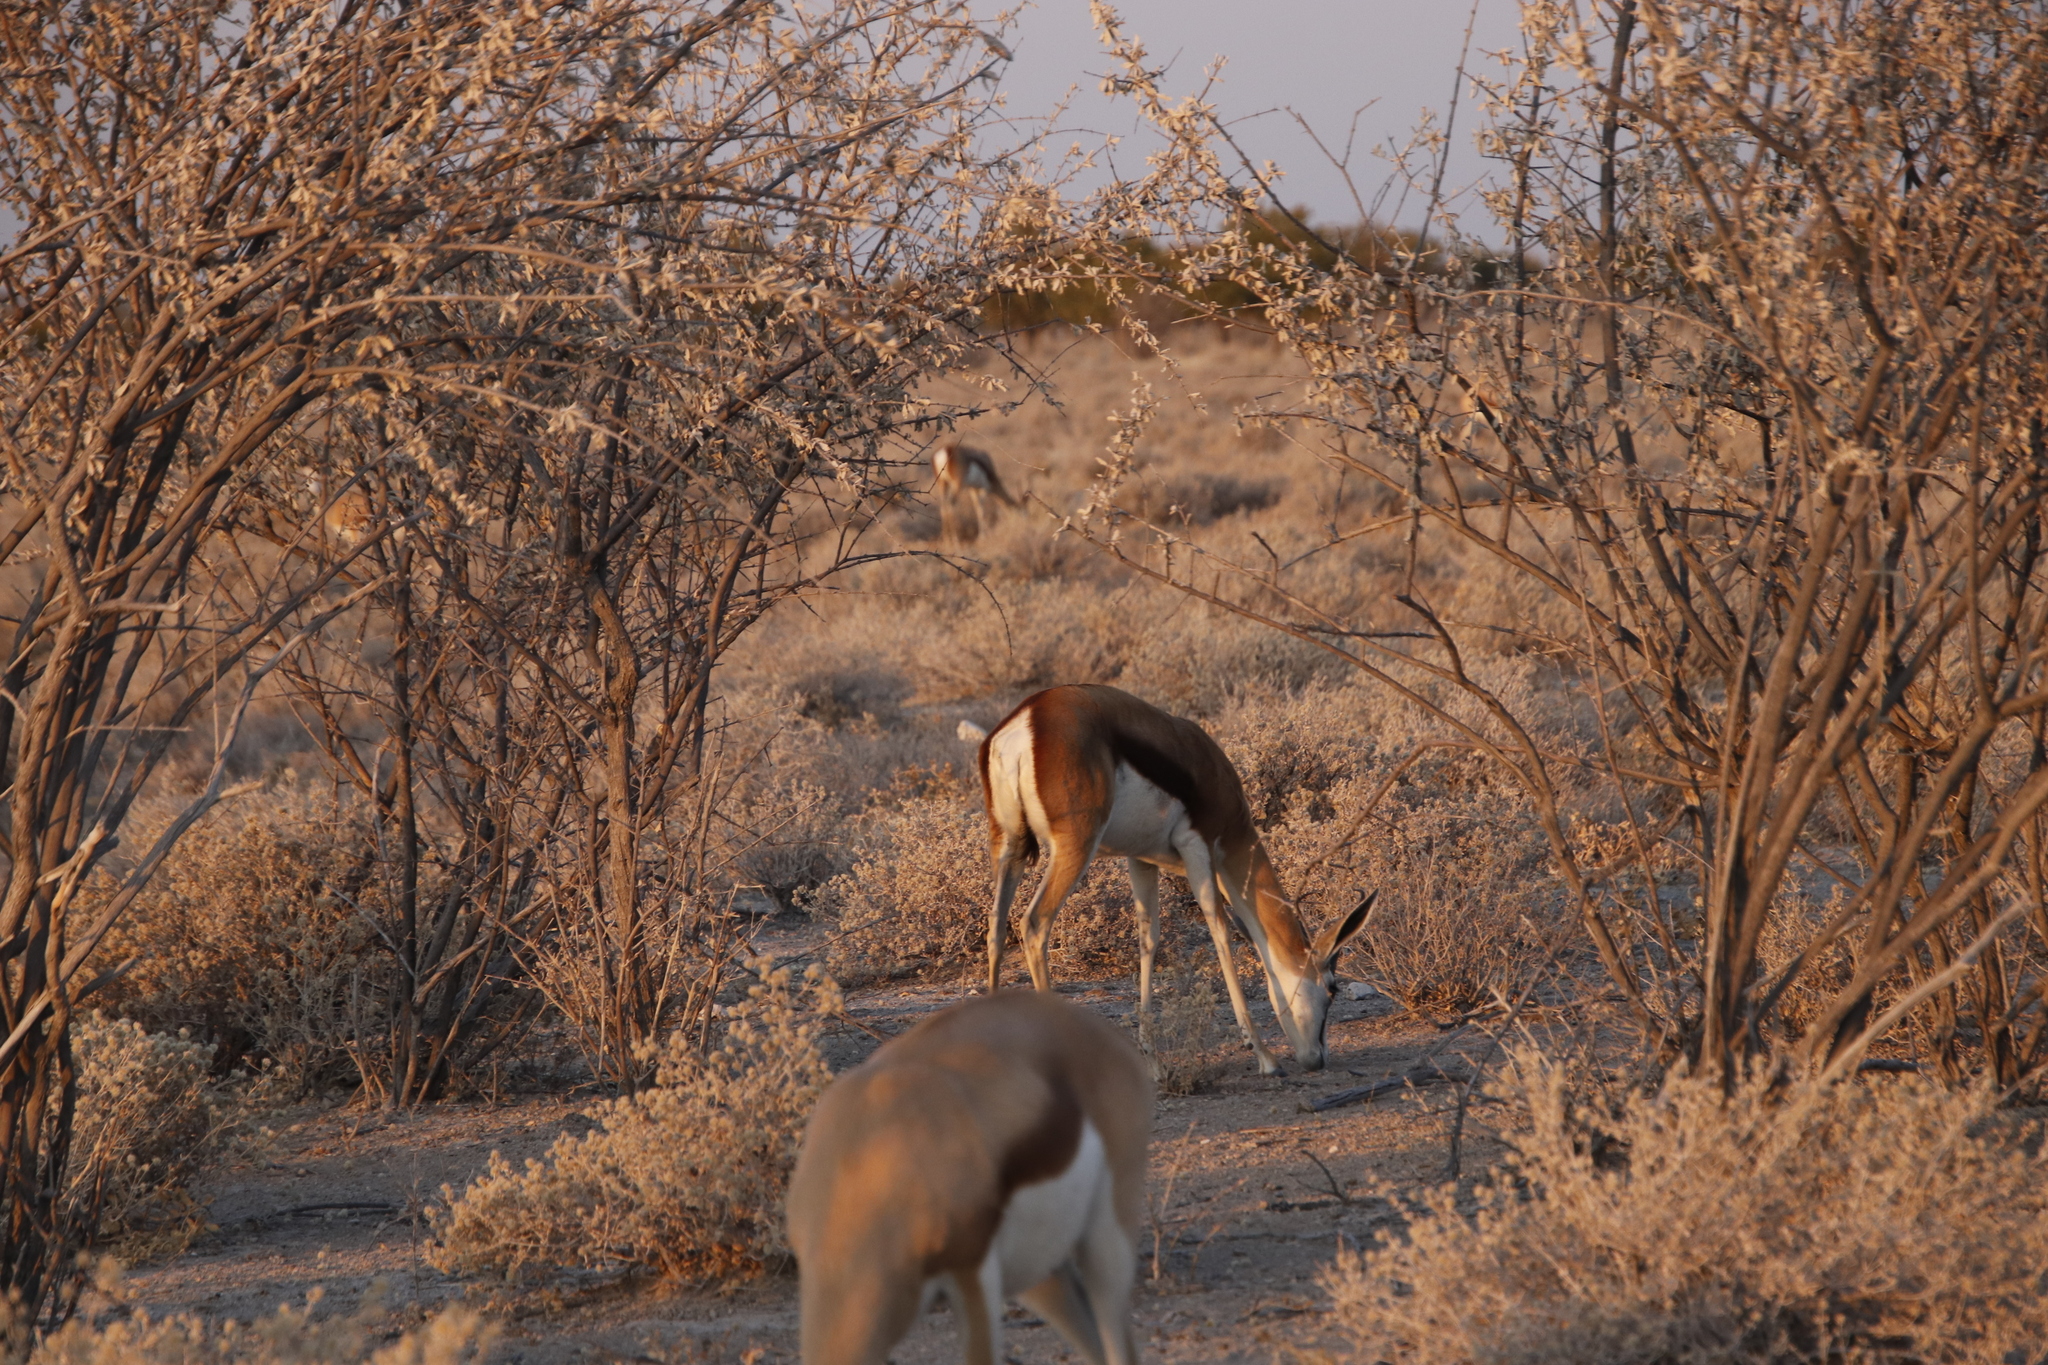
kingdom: Animalia
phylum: Chordata
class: Mammalia
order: Artiodactyla
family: Bovidae
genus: Antidorcas
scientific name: Antidorcas marsupialis
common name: Springbok
